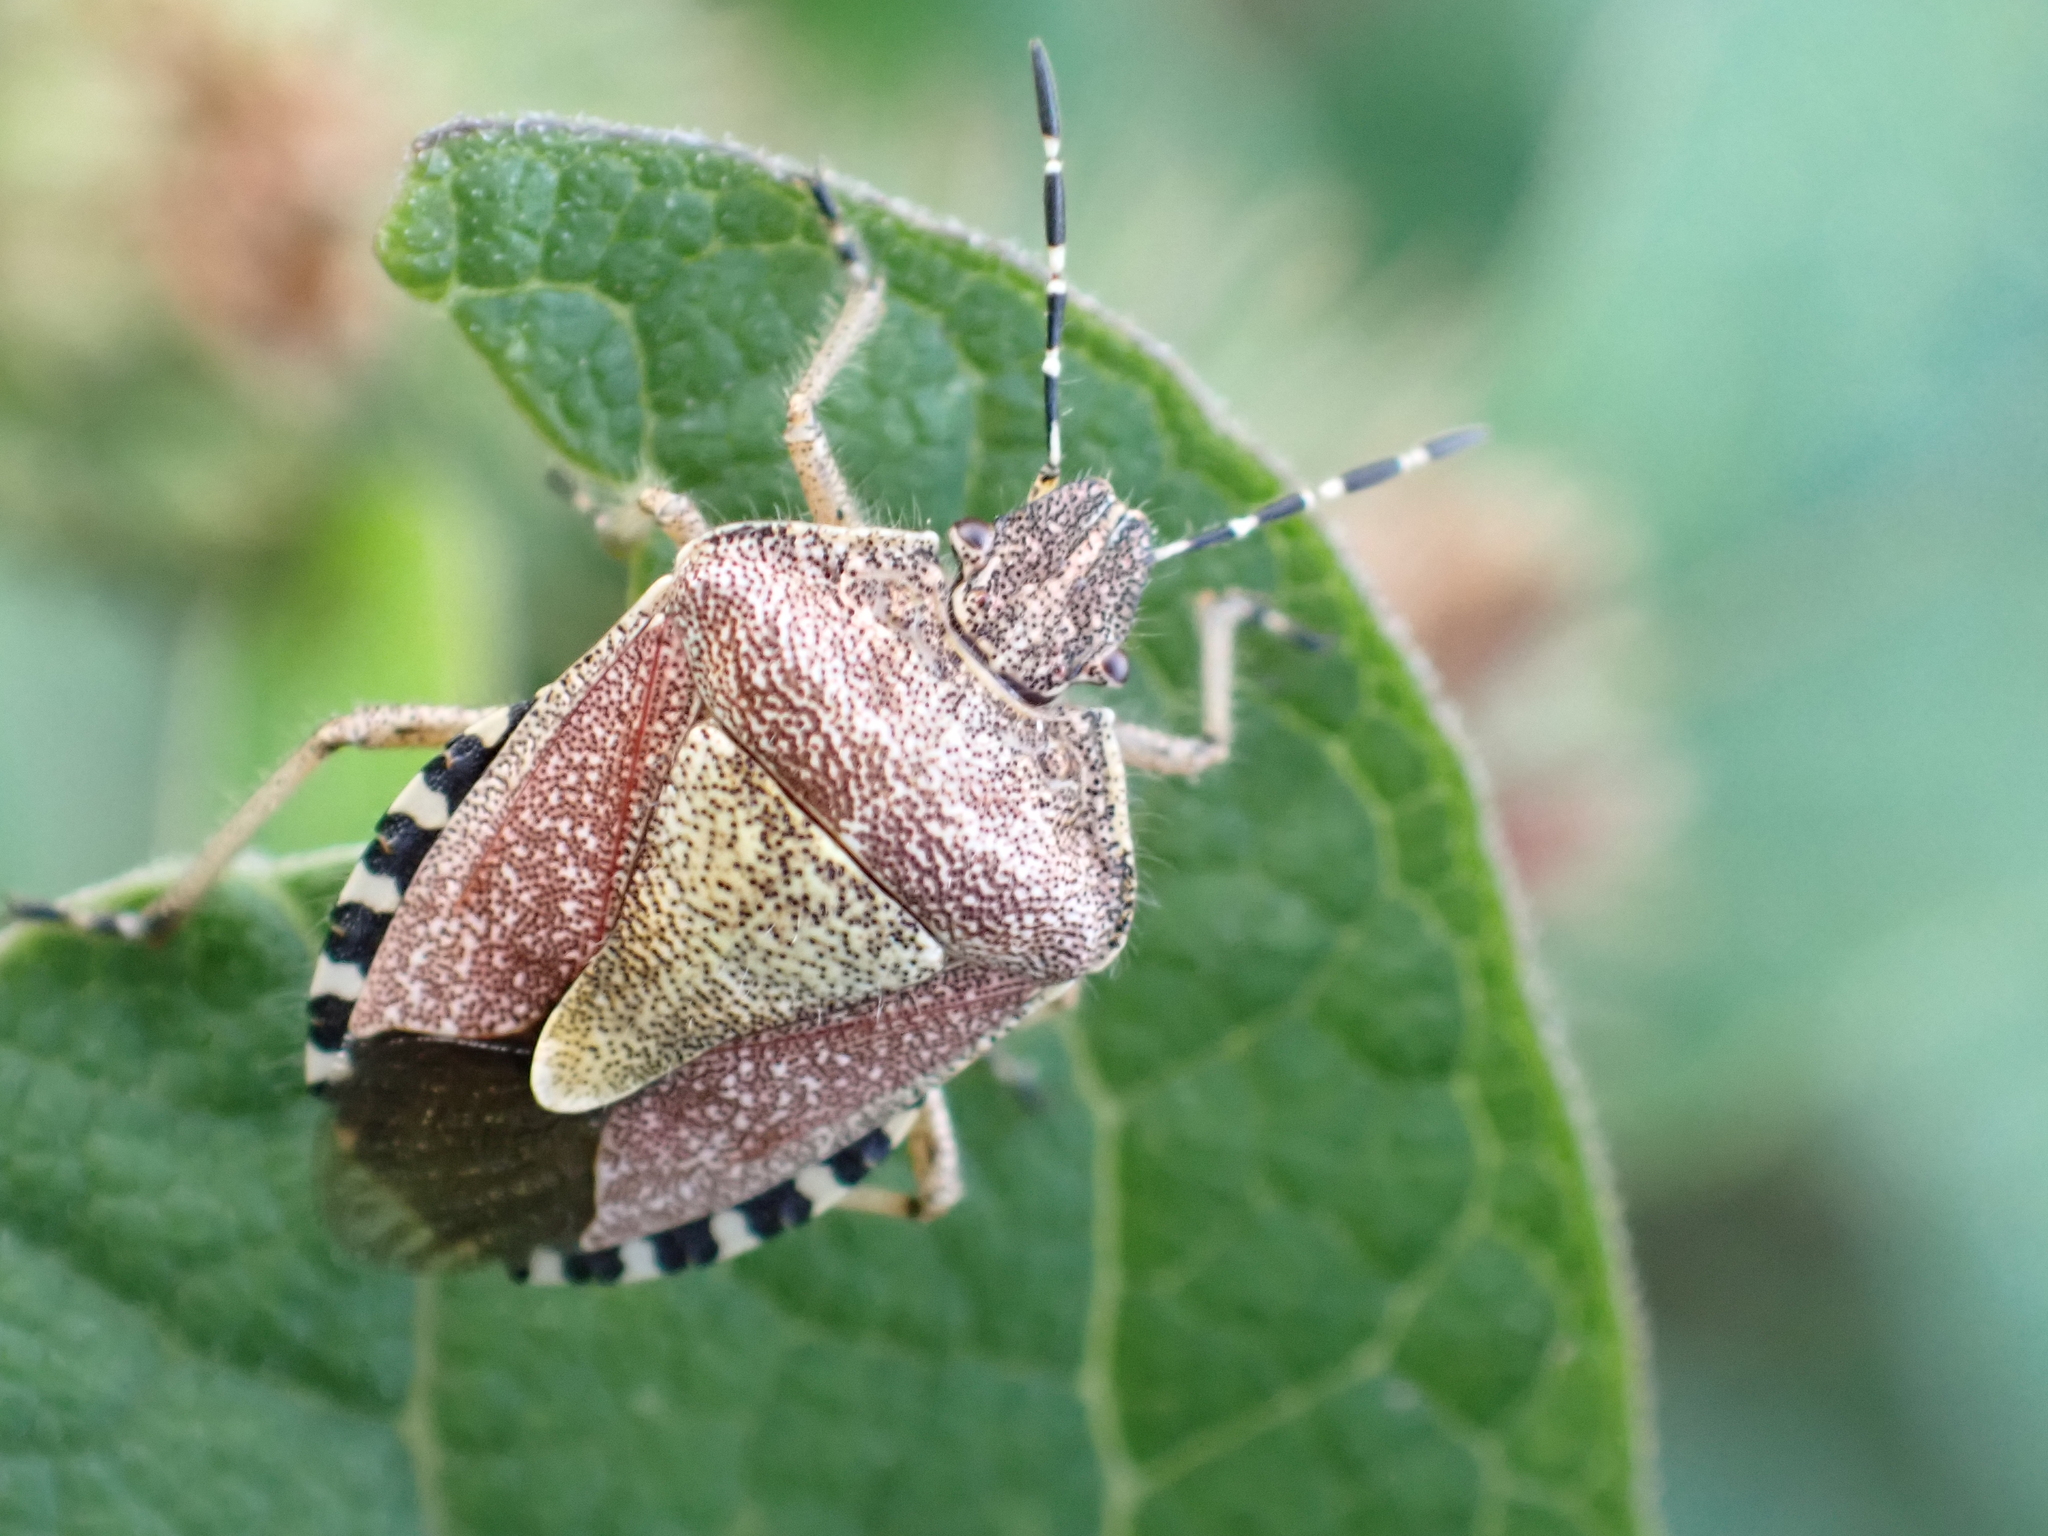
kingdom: Animalia
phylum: Arthropoda
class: Insecta
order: Hemiptera
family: Pentatomidae
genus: Dolycoris
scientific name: Dolycoris baccarum
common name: Sloe bug
